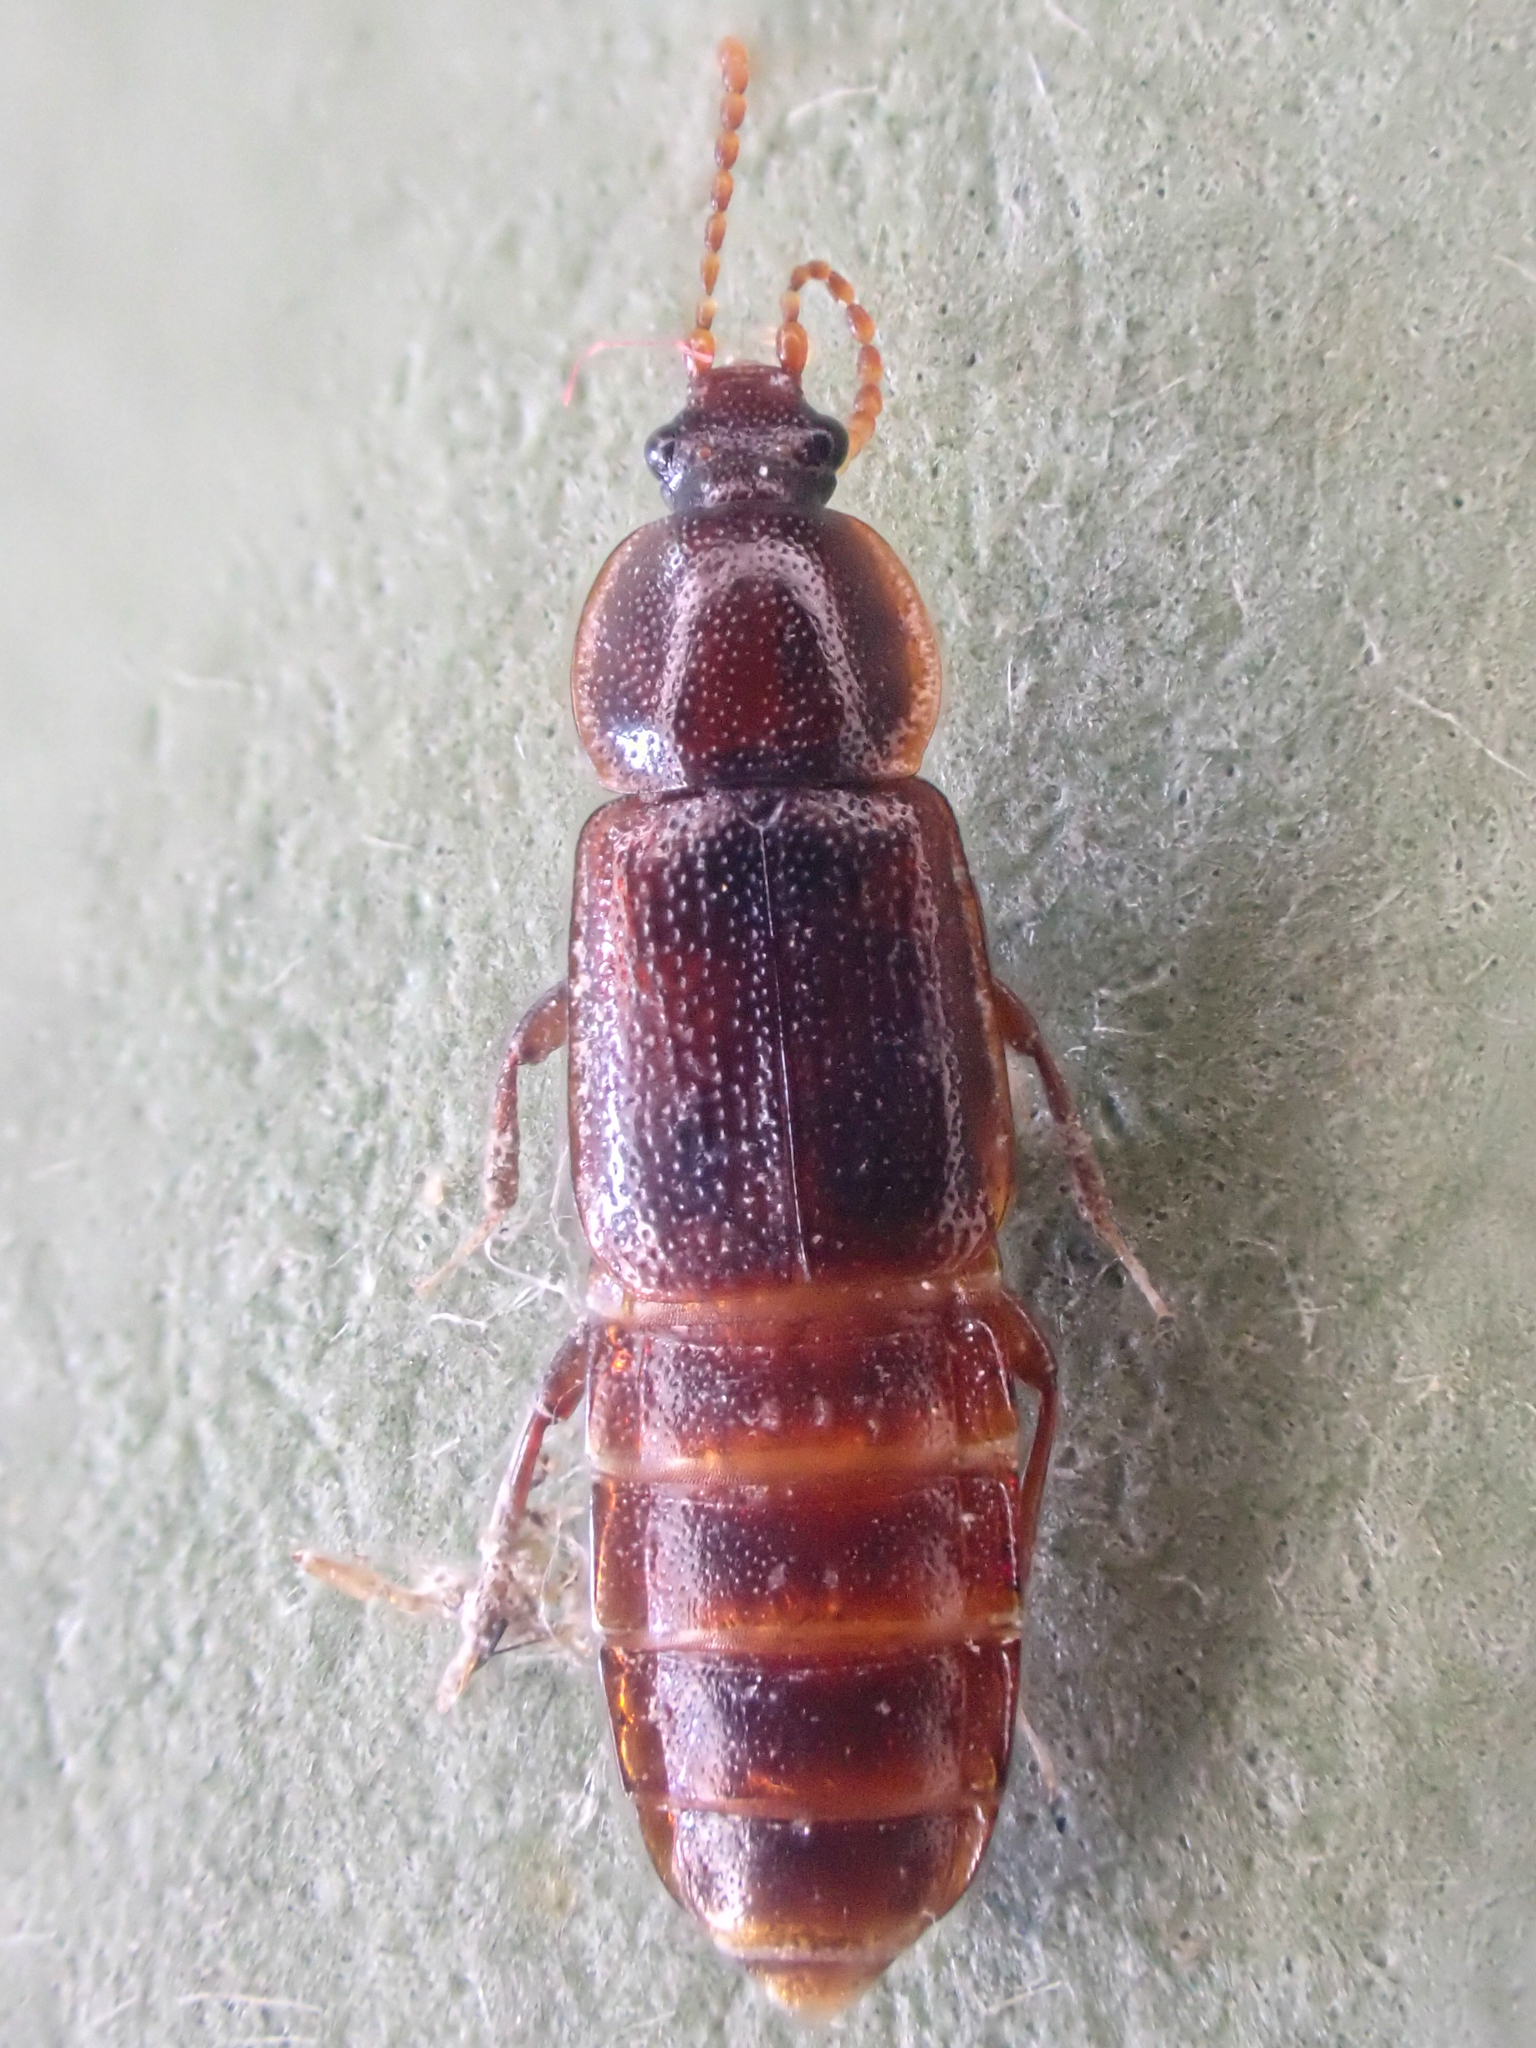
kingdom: Animalia
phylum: Arthropoda
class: Insecta
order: Coleoptera
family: Staphylinidae
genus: Acidota
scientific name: Acidota crenata
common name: Staph beetle
